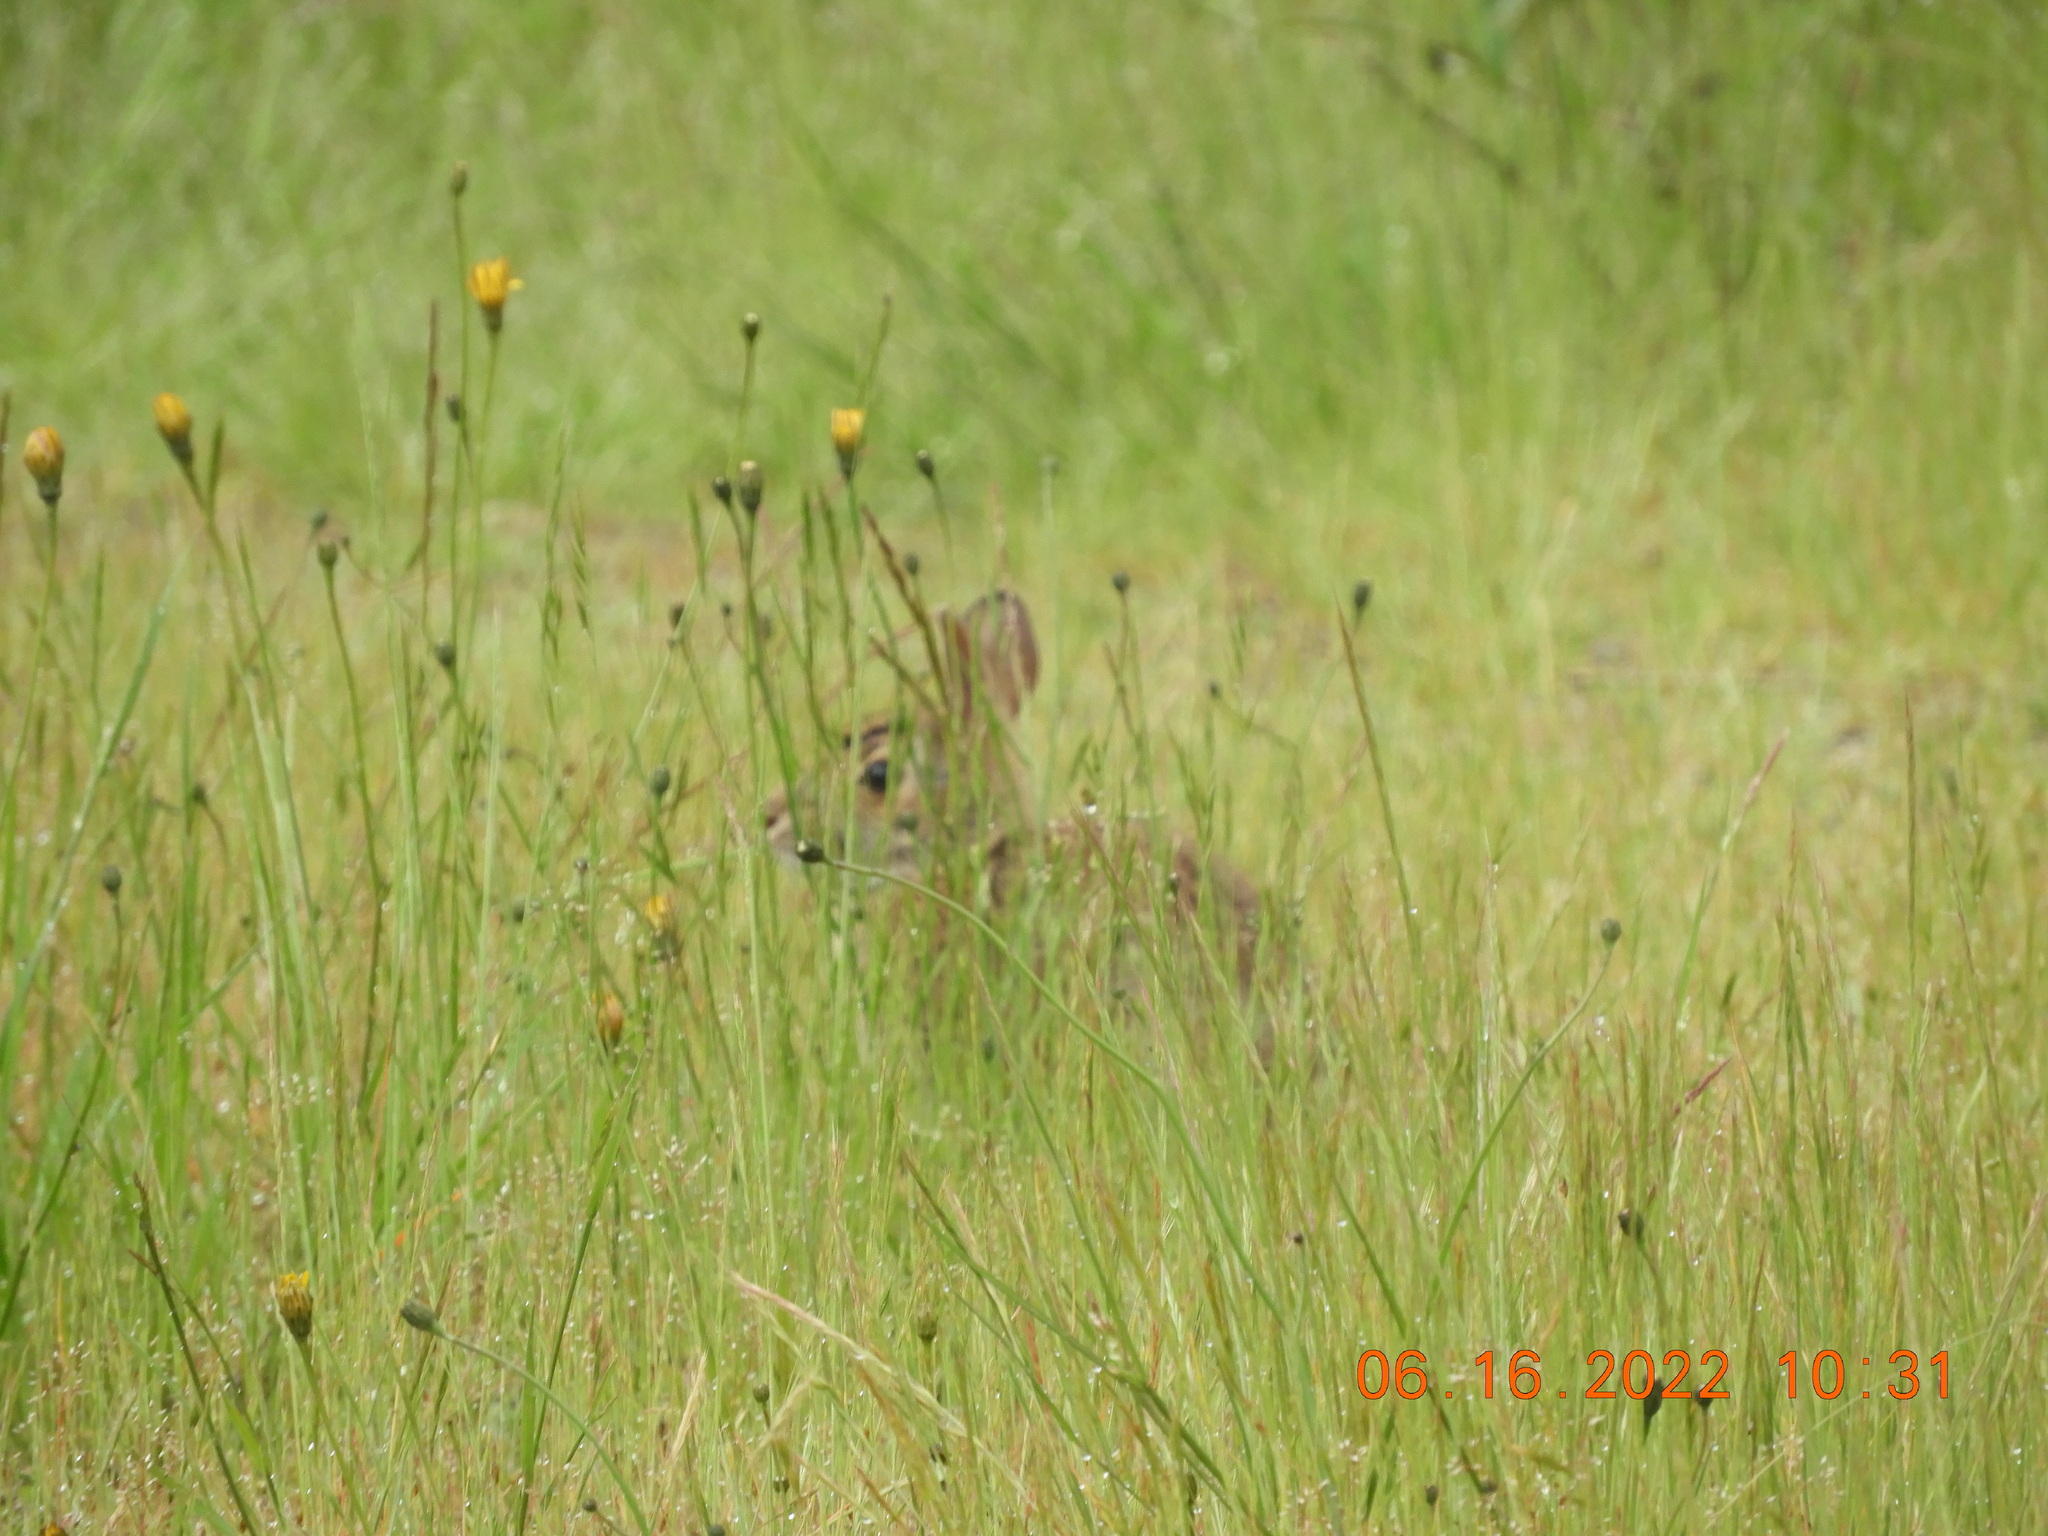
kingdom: Animalia
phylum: Chordata
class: Mammalia
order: Lagomorpha
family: Leporidae
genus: Sylvilagus
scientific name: Sylvilagus floridanus
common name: Eastern cottontail
